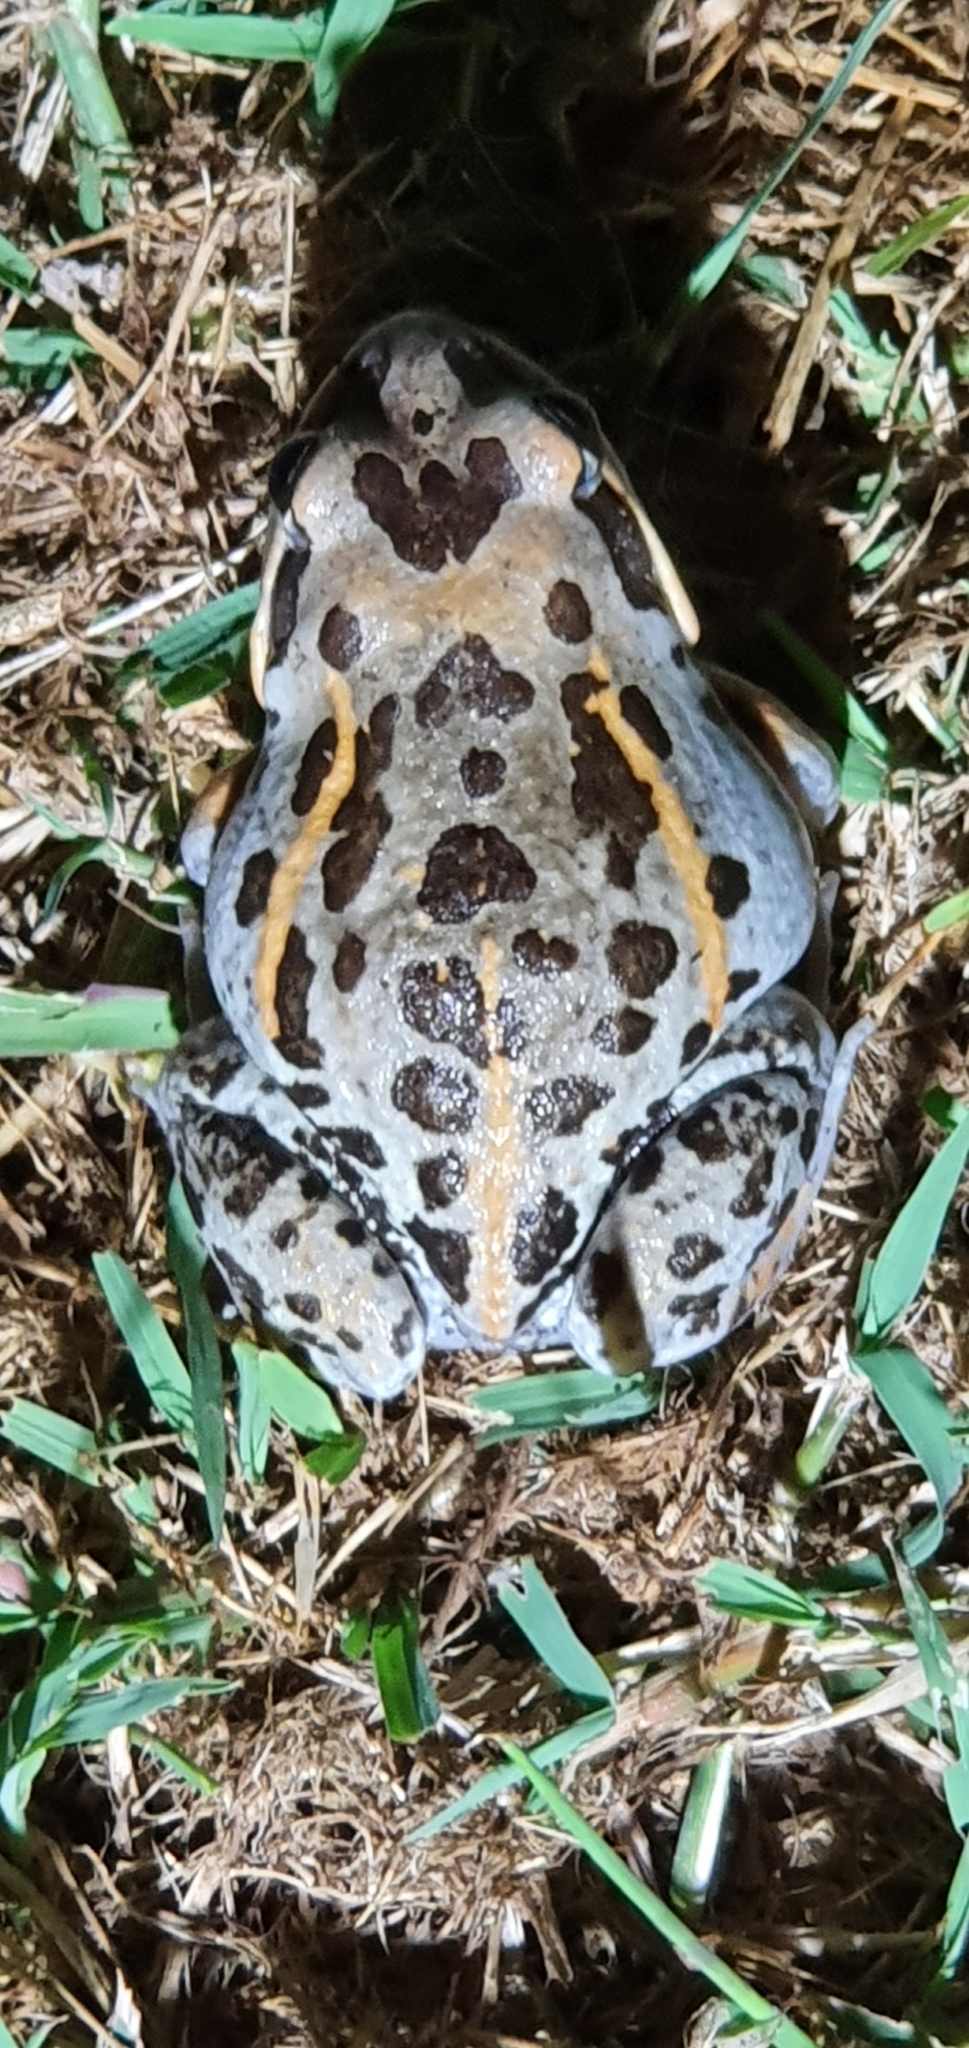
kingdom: Animalia
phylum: Chordata
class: Amphibia
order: Anura
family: Limnodynastidae
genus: Limnodynastes
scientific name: Limnodynastes salmini
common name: Salmon-striped frog
